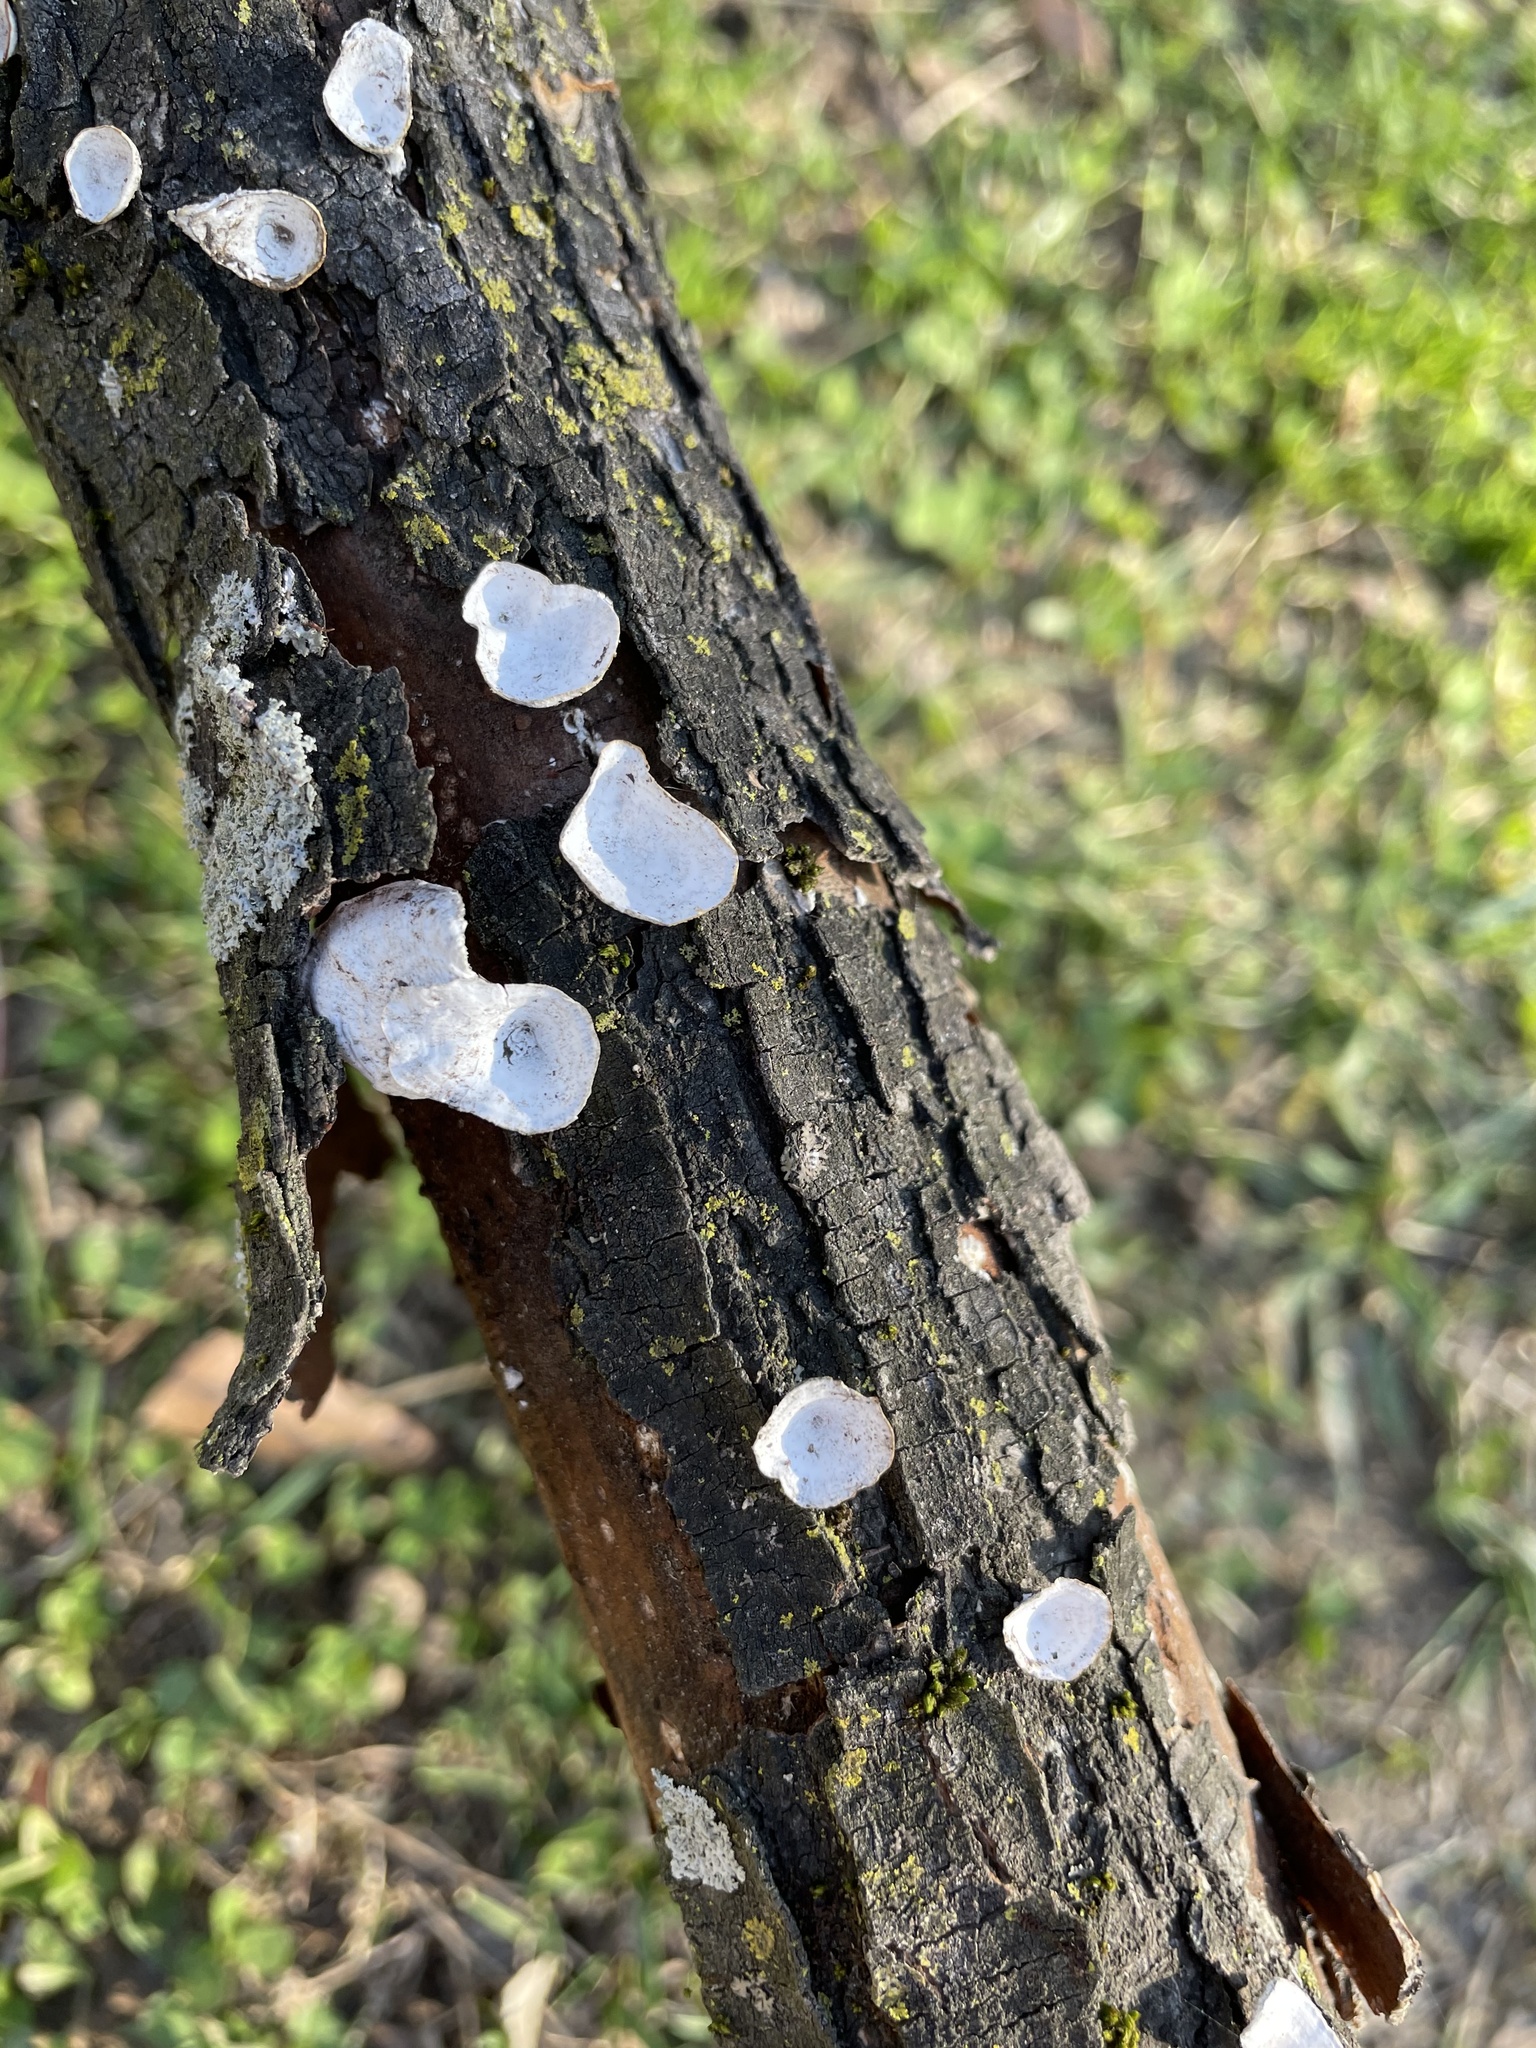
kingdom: Fungi
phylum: Basidiomycota
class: Agaricomycetes
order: Polyporales
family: Polyporaceae
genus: Poronidulus
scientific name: Poronidulus conchifer
